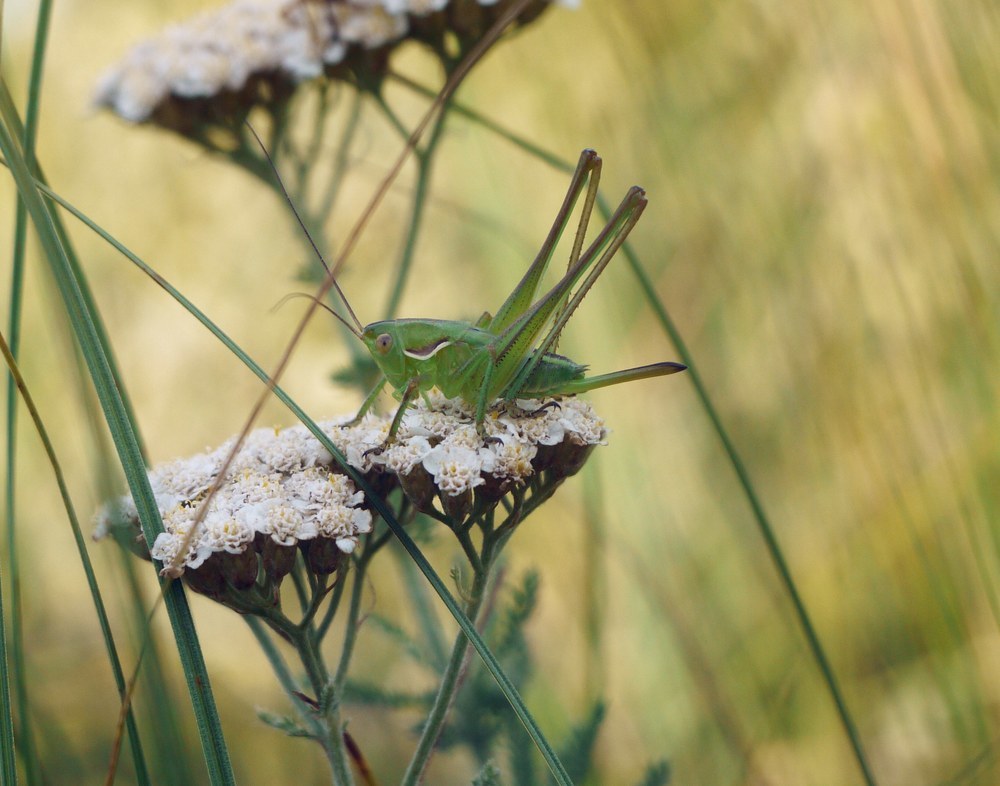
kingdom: Animalia
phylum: Arthropoda
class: Insecta
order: Orthoptera
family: Tettigoniidae
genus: Gampsocleis
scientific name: Gampsocleis glabra
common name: Heath bushcricket
